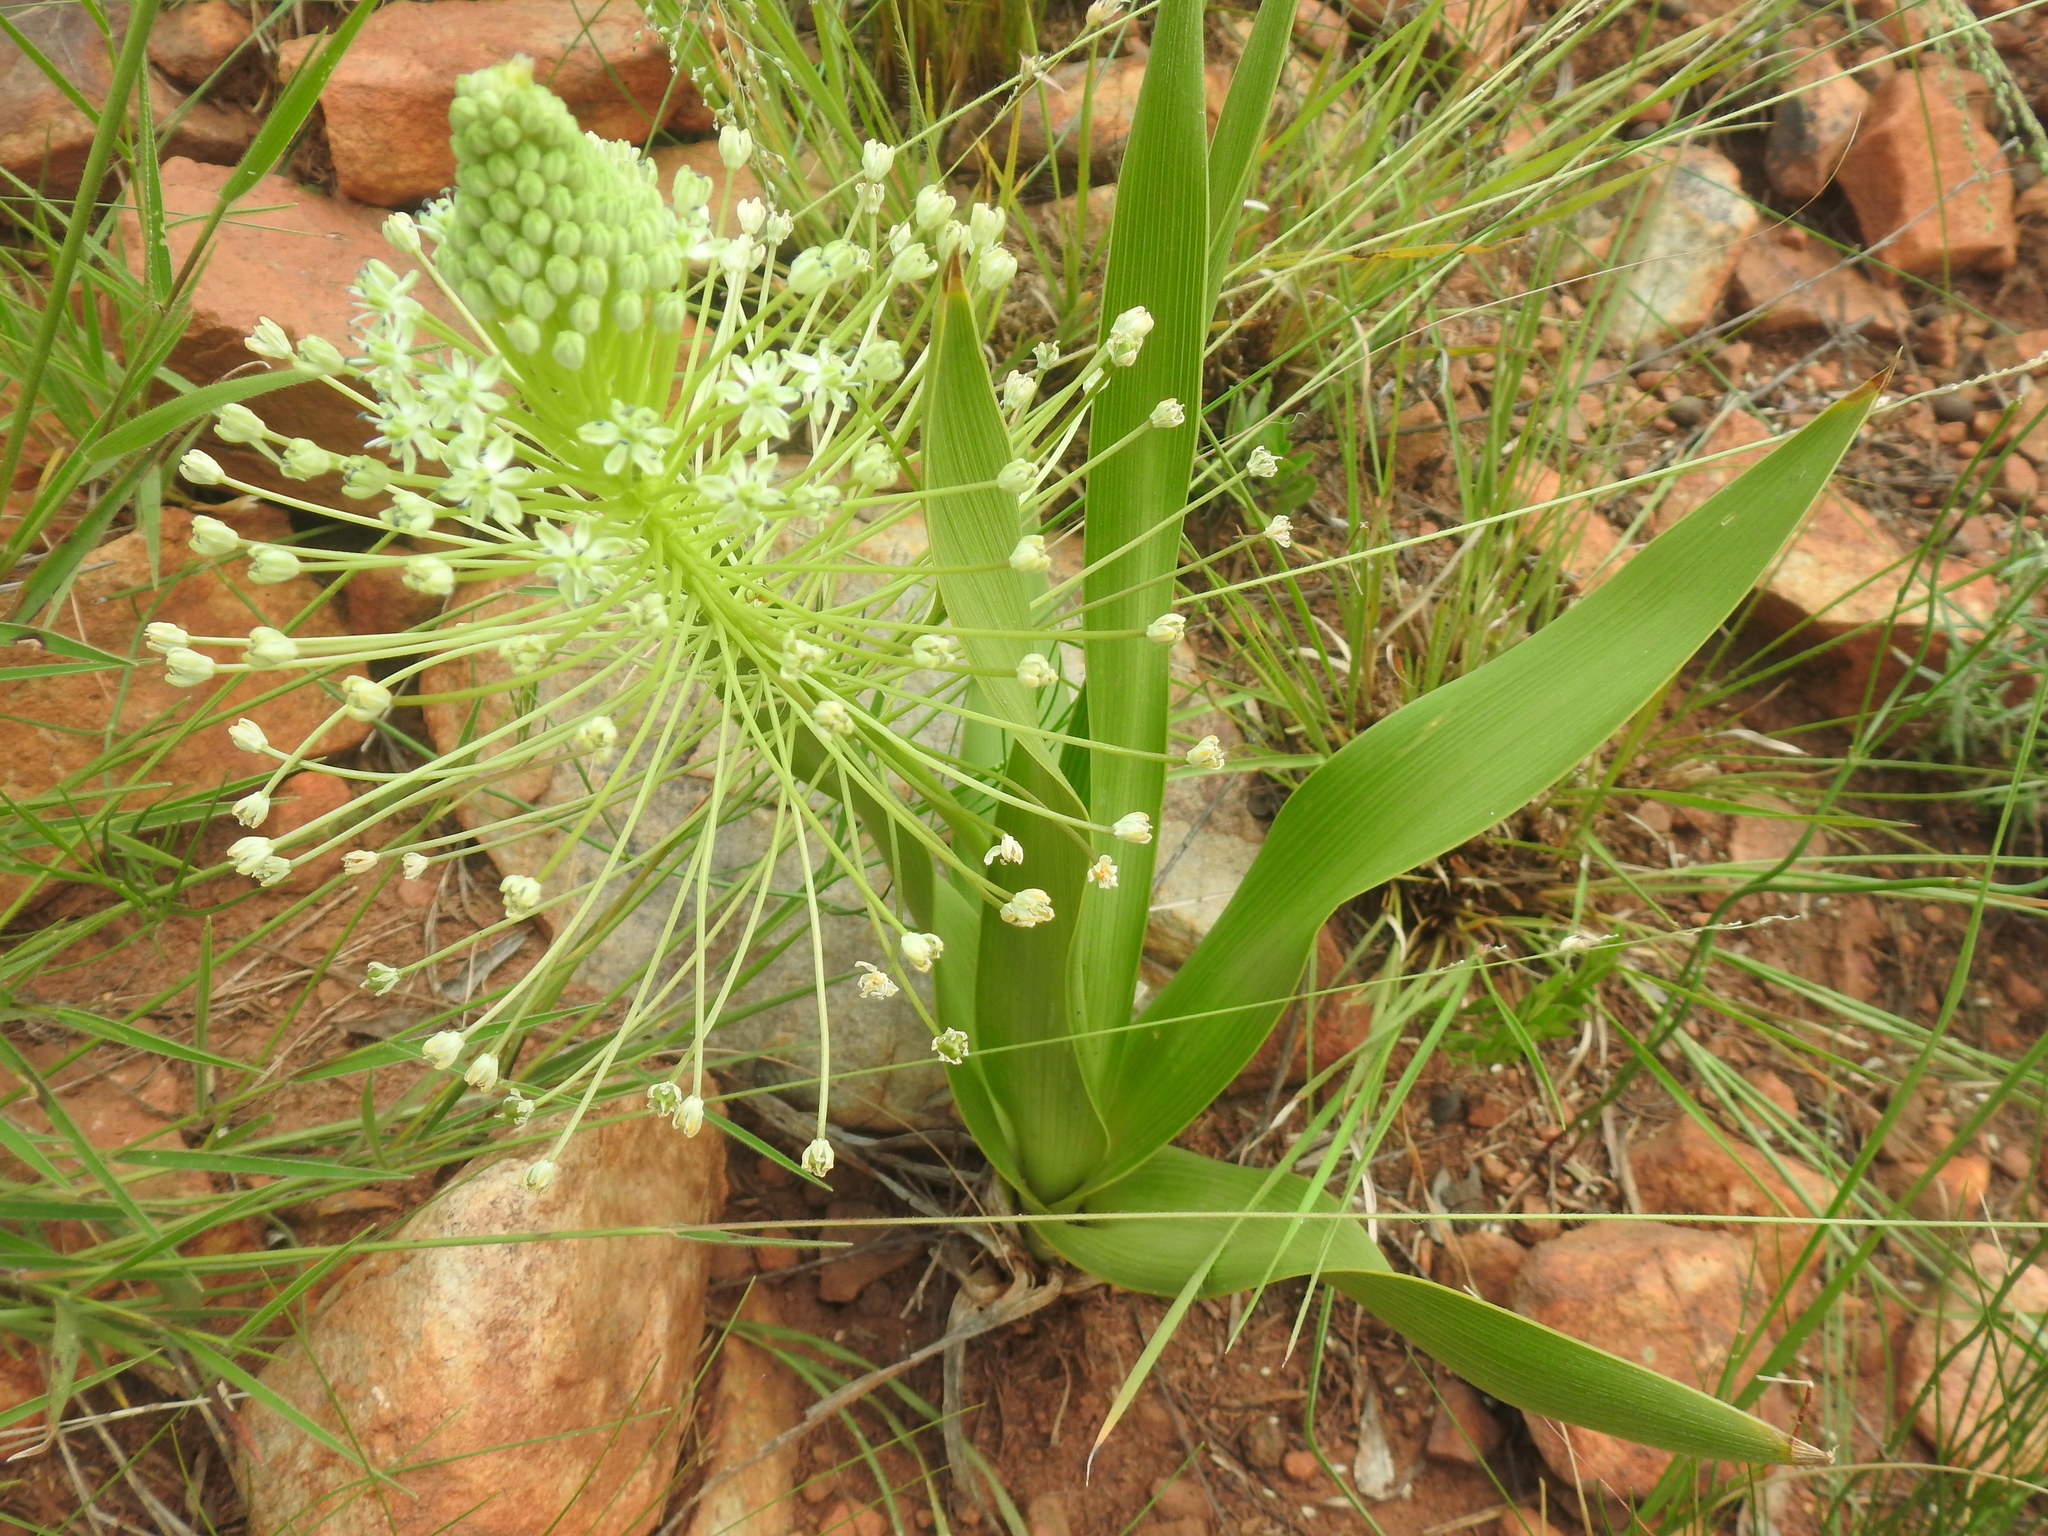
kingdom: Plantae
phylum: Tracheophyta
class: Liliopsida
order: Asparagales
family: Asparagaceae
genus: Schizocarphus
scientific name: Schizocarphus nervosus
